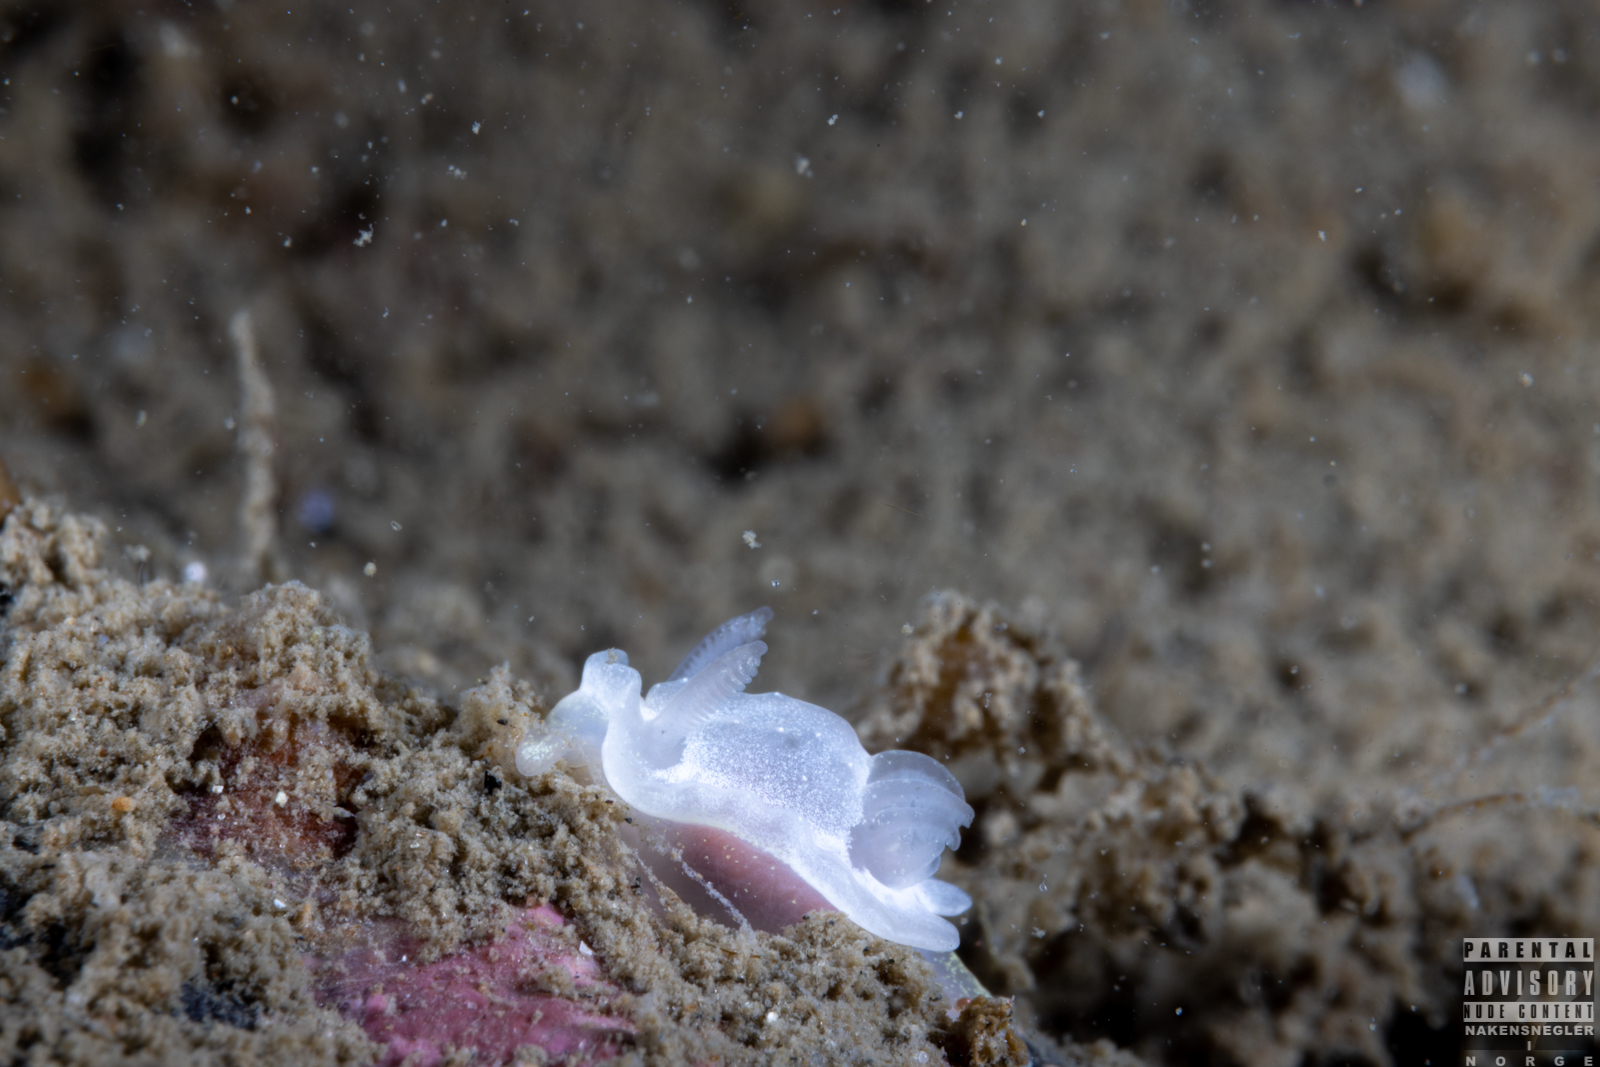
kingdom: Animalia
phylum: Mollusca
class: Gastropoda
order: Nudibranchia
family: Goniodorididae
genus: Okenia
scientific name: Okenia
